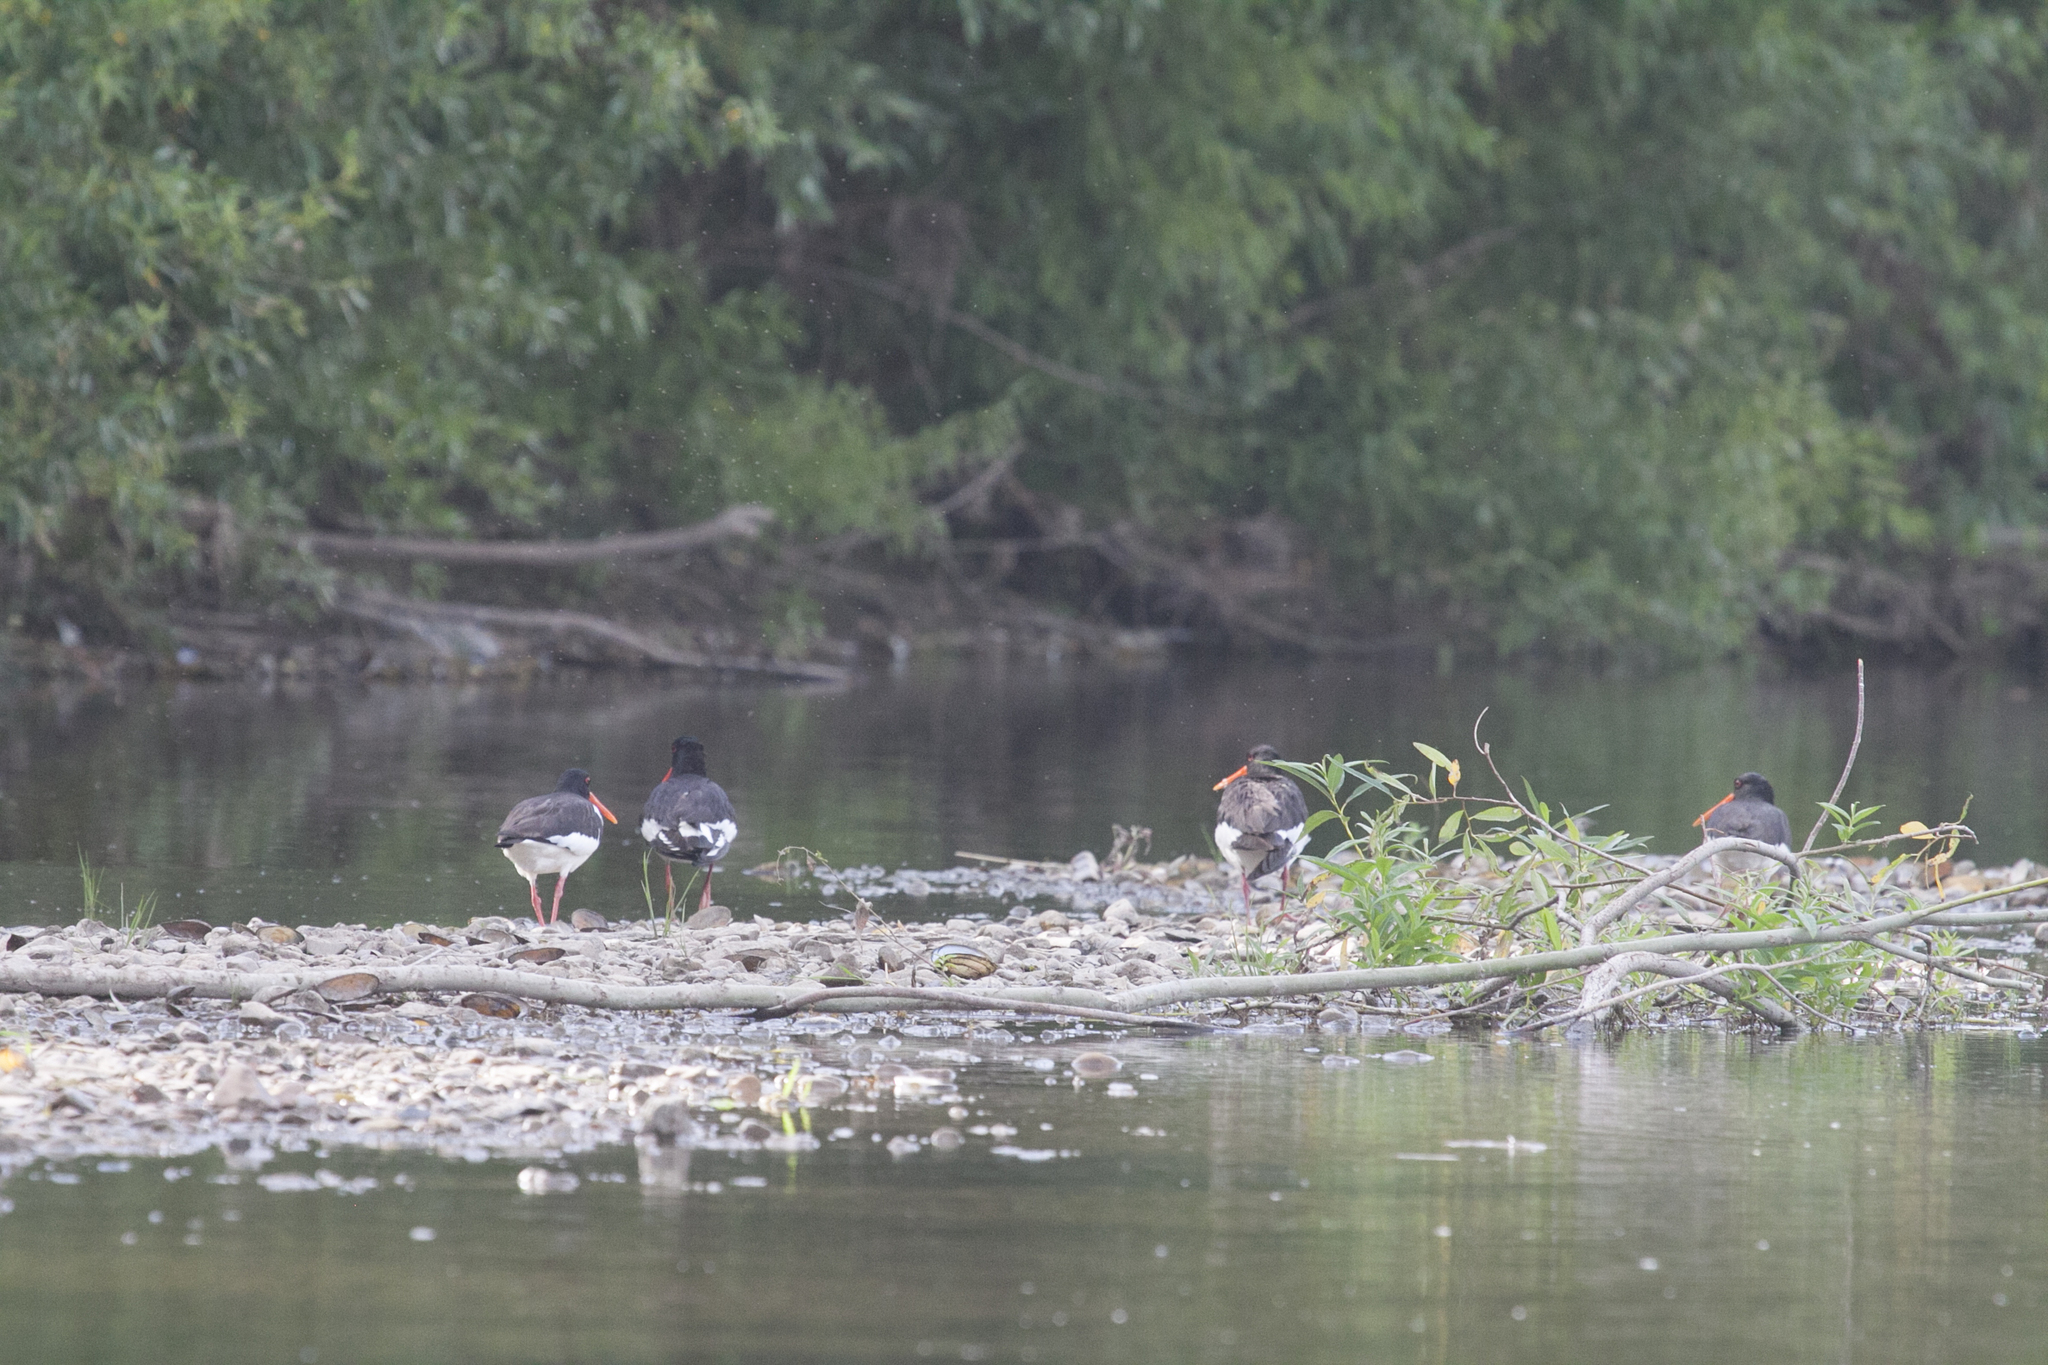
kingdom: Animalia
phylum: Chordata
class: Aves
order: Charadriiformes
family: Haematopodidae
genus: Haematopus
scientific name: Haematopus ostralegus
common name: Eurasian oystercatcher
